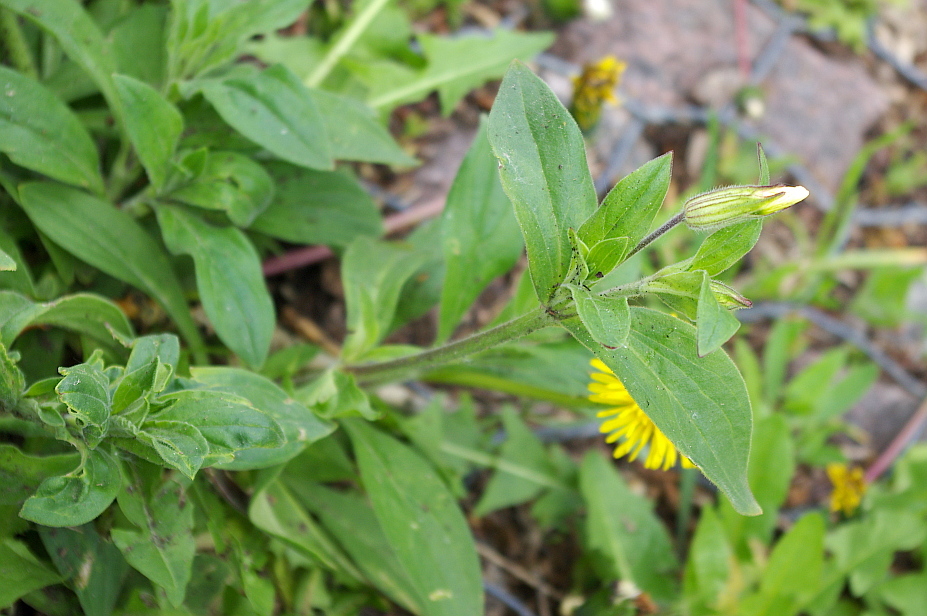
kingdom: Plantae
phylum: Tracheophyta
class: Magnoliopsida
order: Caryophyllales
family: Caryophyllaceae
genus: Silene
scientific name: Silene latifolia
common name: White campion
